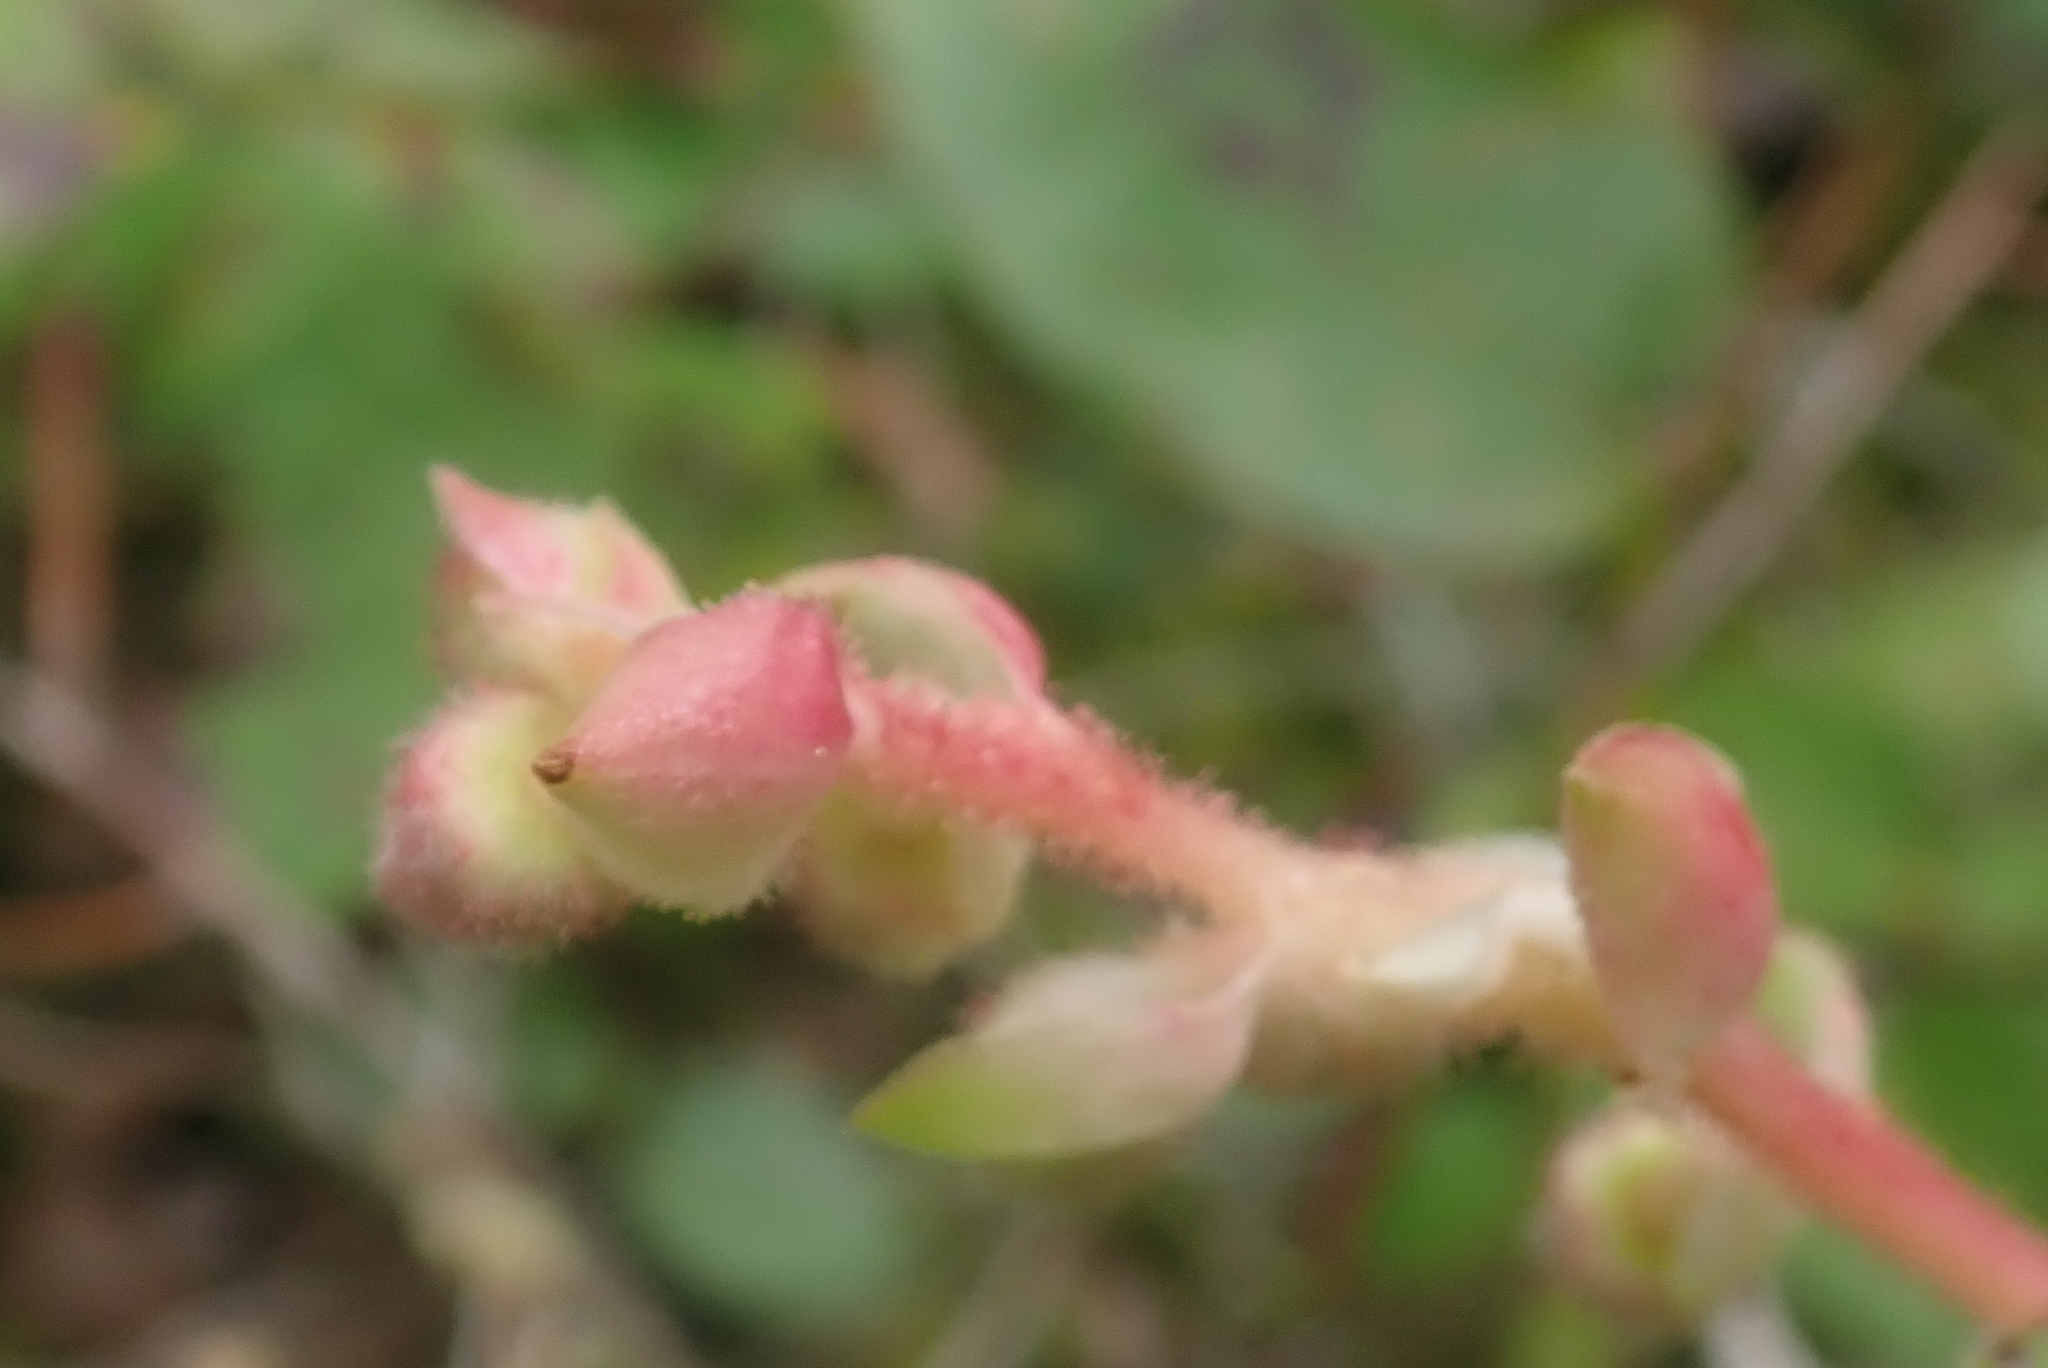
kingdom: Plantae
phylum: Tracheophyta
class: Magnoliopsida
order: Ericales
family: Ericaceae
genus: Gaultheria
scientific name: Gaultheria shallon
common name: Shallon
